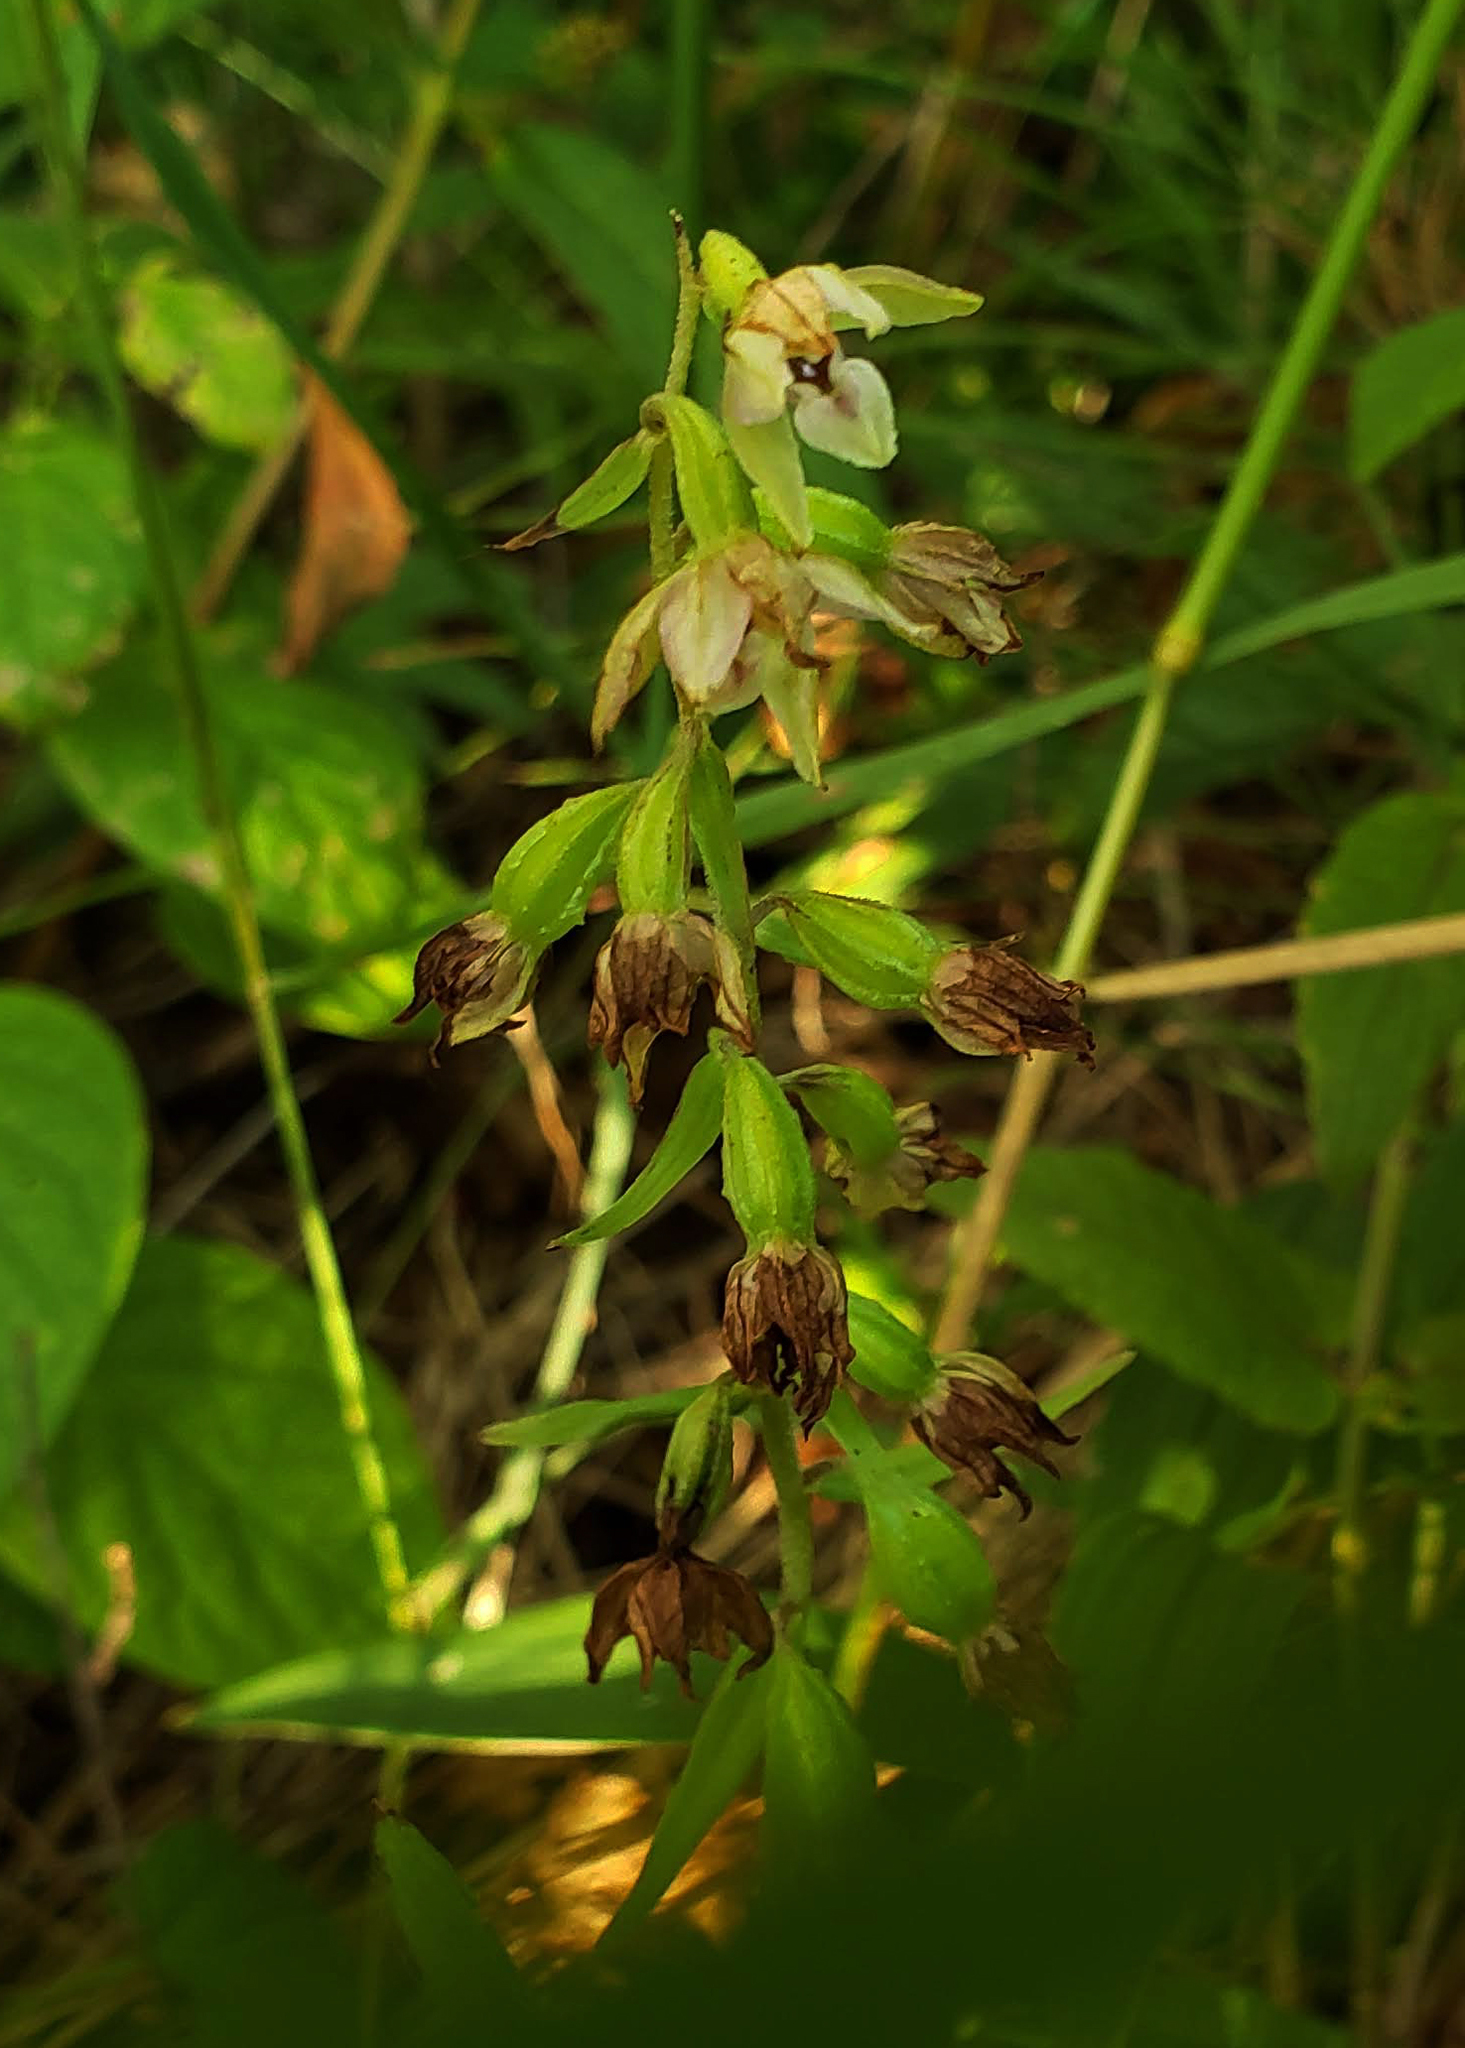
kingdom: Plantae
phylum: Tracheophyta
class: Liliopsida
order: Asparagales
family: Orchidaceae
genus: Epipactis
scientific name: Epipactis helleborine
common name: Broad-leaved helleborine
